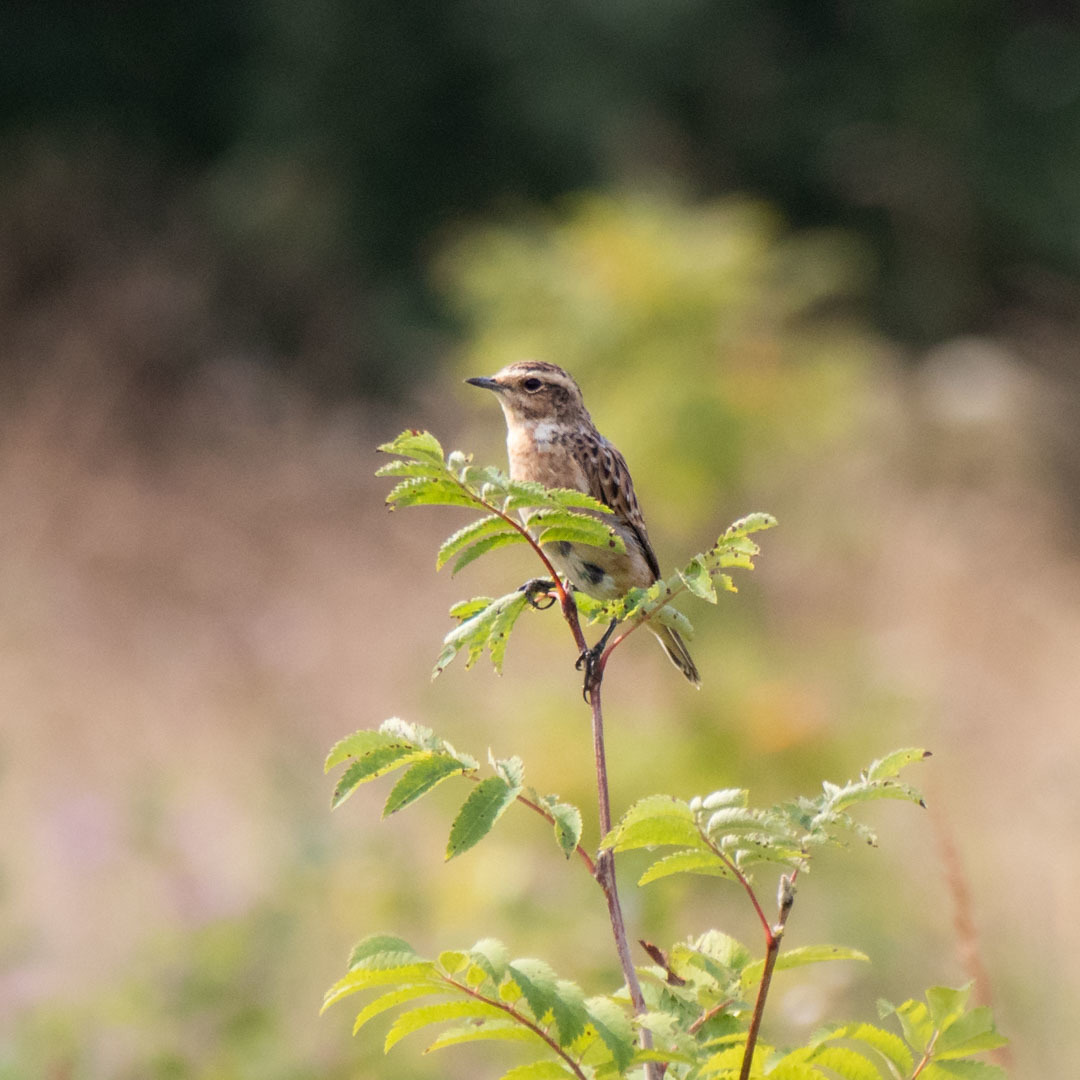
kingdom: Animalia
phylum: Chordata
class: Aves
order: Passeriformes
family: Muscicapidae
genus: Saxicola
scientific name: Saxicola rubetra
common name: Whinchat
